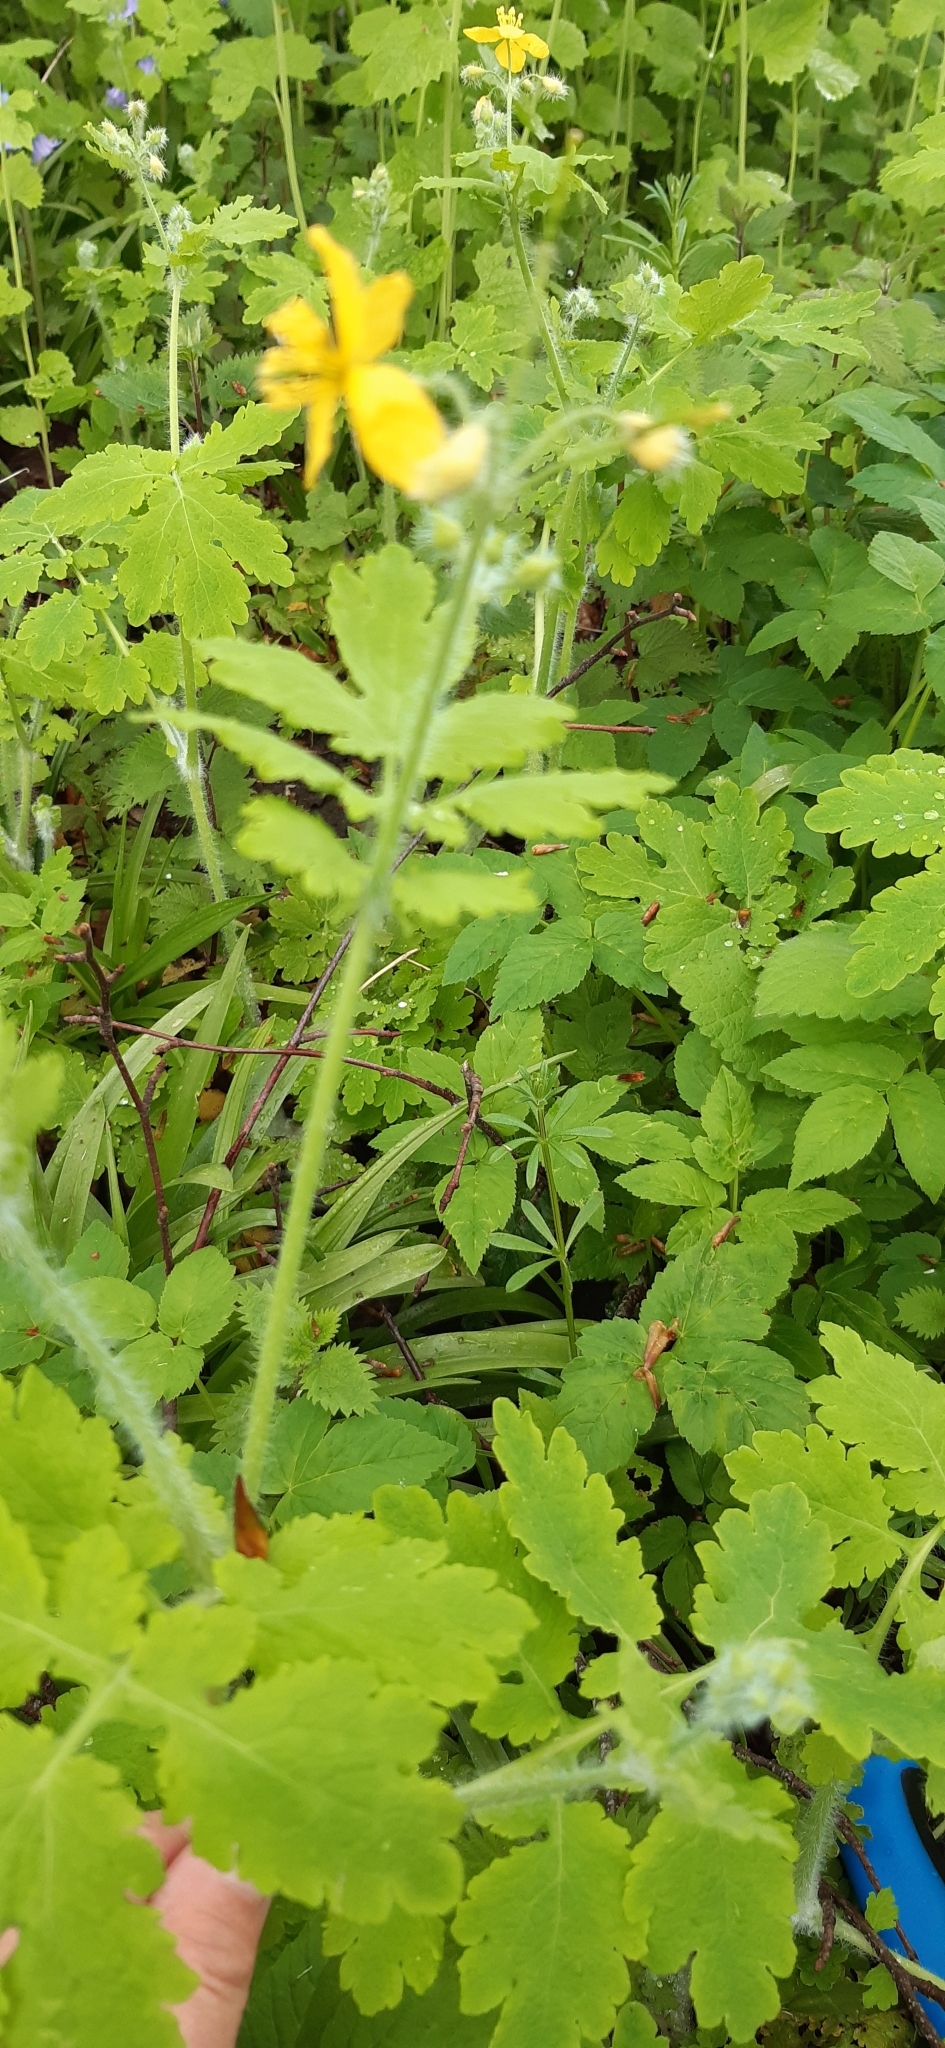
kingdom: Plantae
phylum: Tracheophyta
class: Magnoliopsida
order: Ranunculales
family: Papaveraceae
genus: Chelidonium
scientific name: Chelidonium majus
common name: Greater celandine
